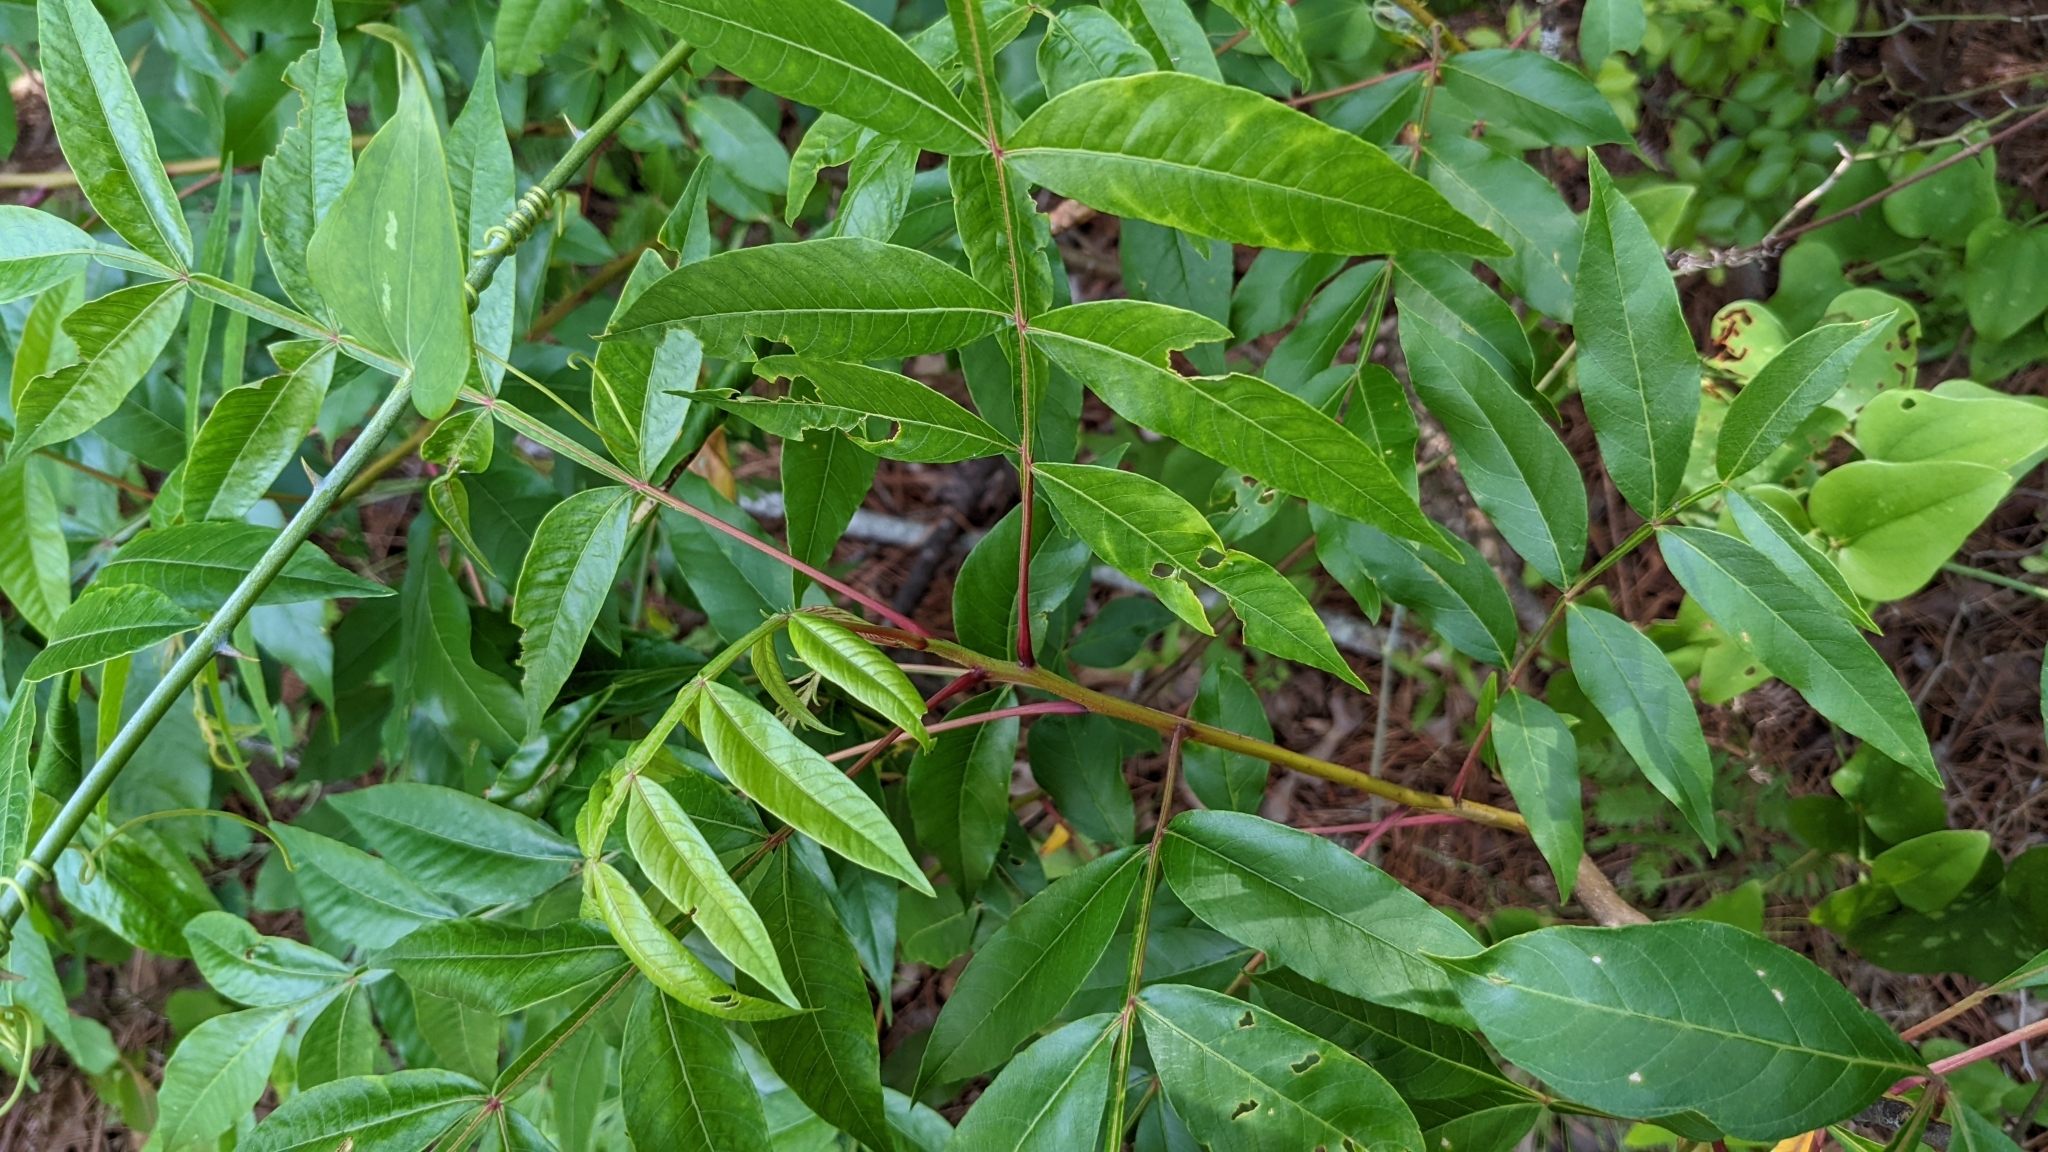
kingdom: Plantae
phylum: Tracheophyta
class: Magnoliopsida
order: Sapindales
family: Anacardiaceae
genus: Rhus
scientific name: Rhus copallina
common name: Shining sumac
